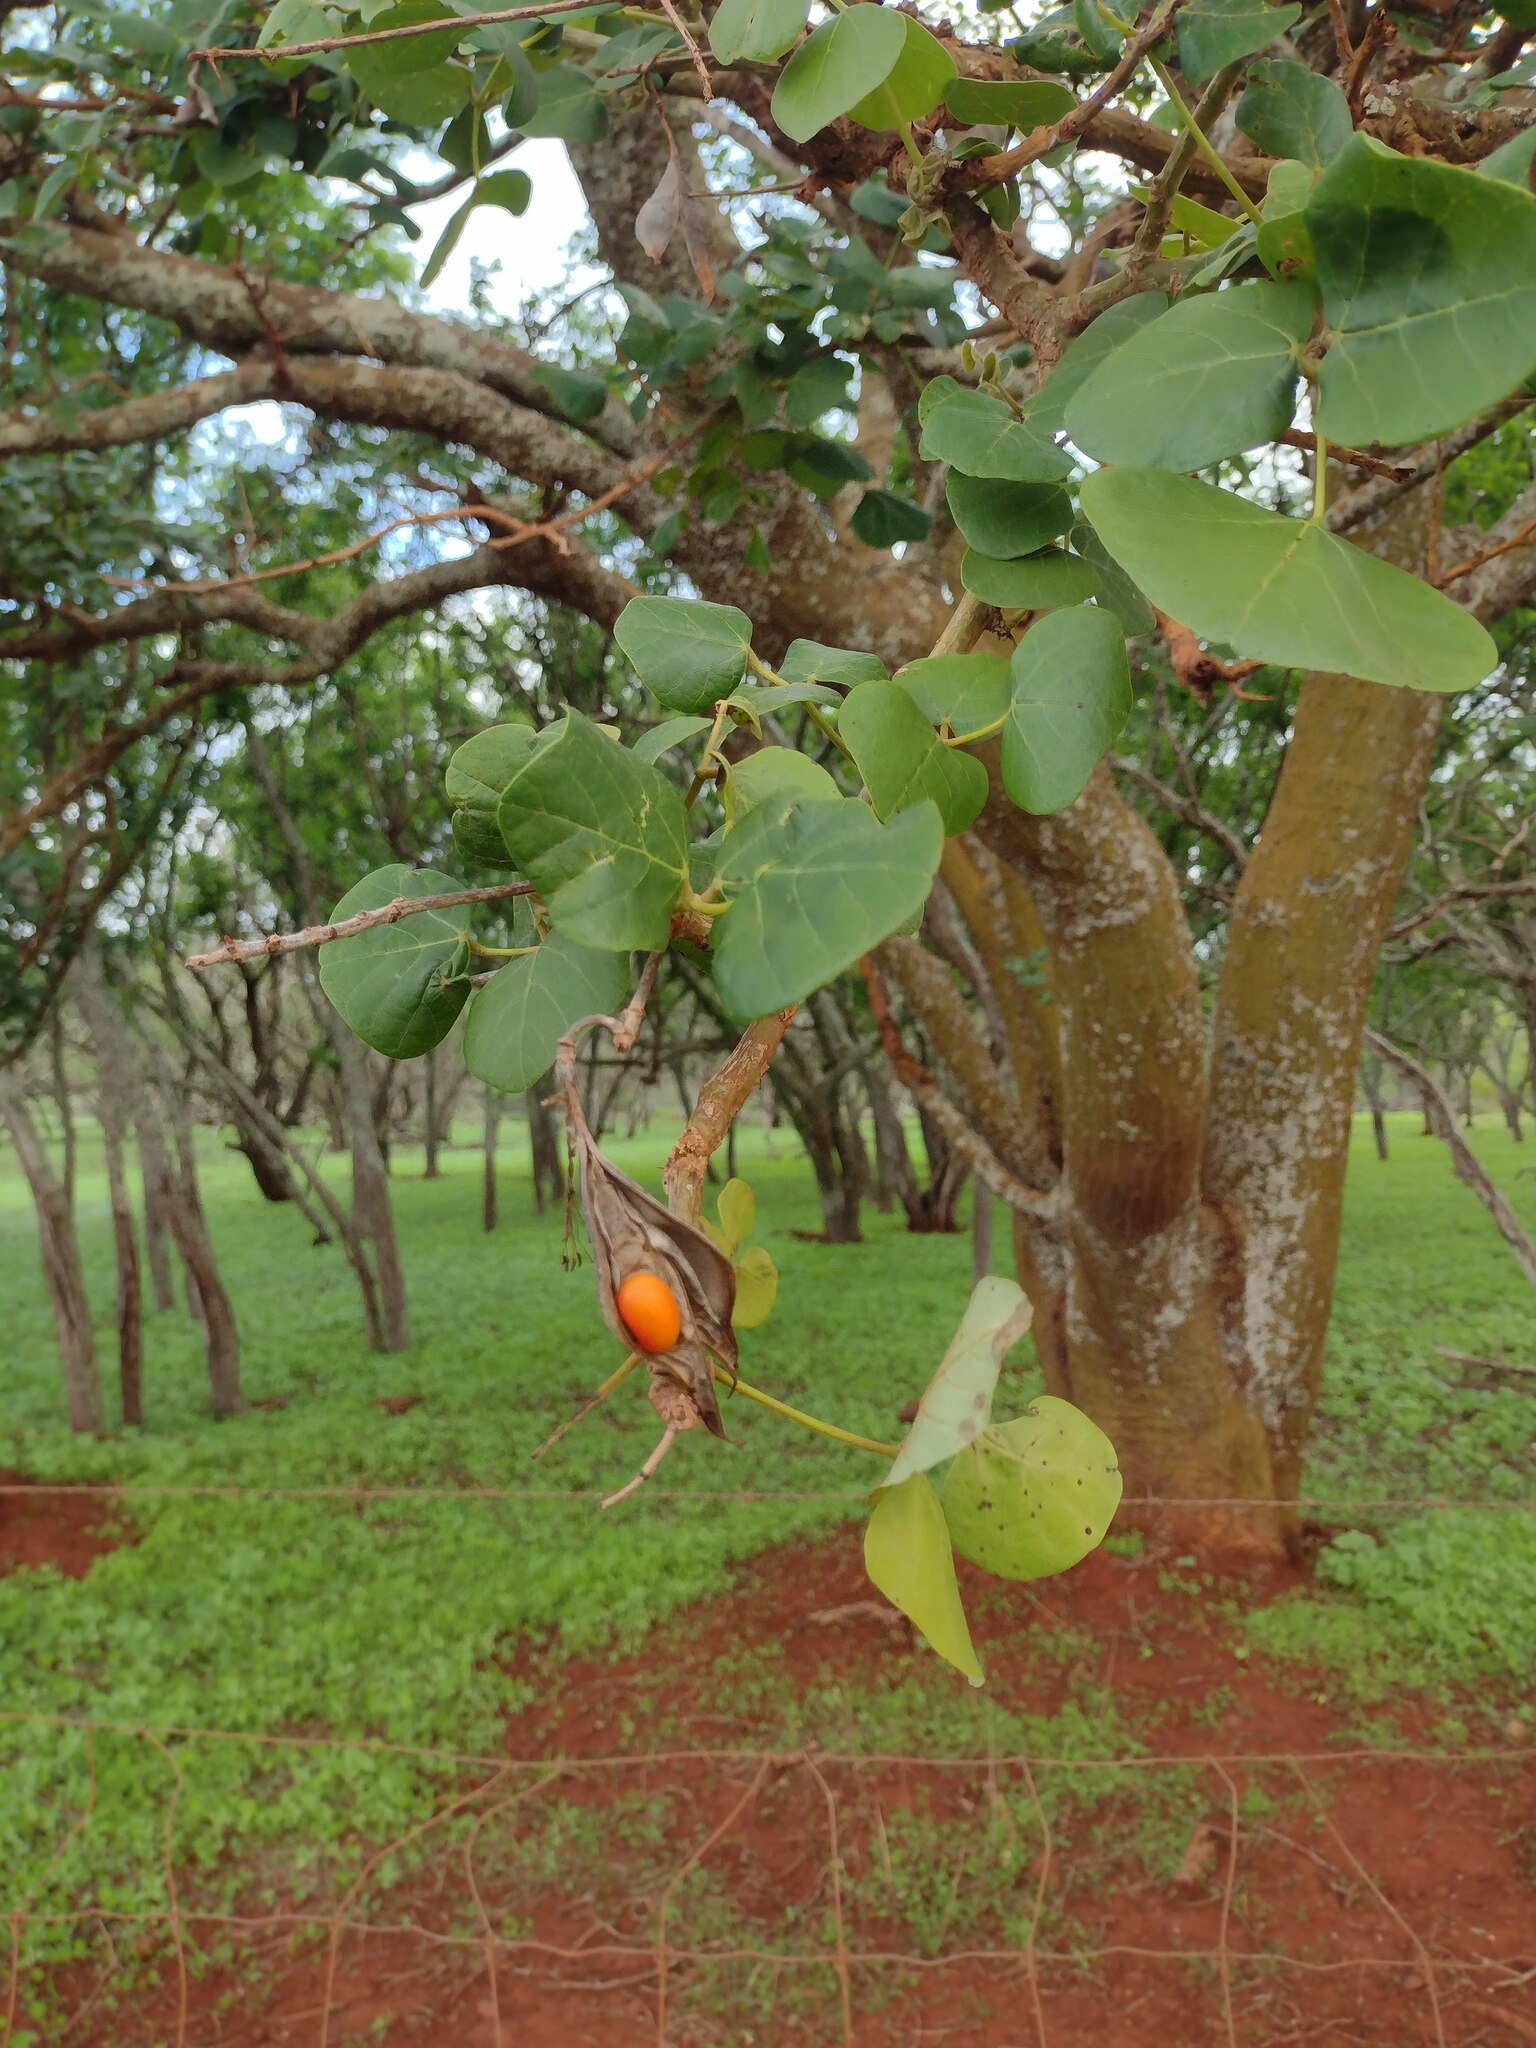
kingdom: Plantae
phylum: Tracheophyta
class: Magnoliopsida
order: Fabales
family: Fabaceae
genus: Erythrina
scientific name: Erythrina sandwicensis
